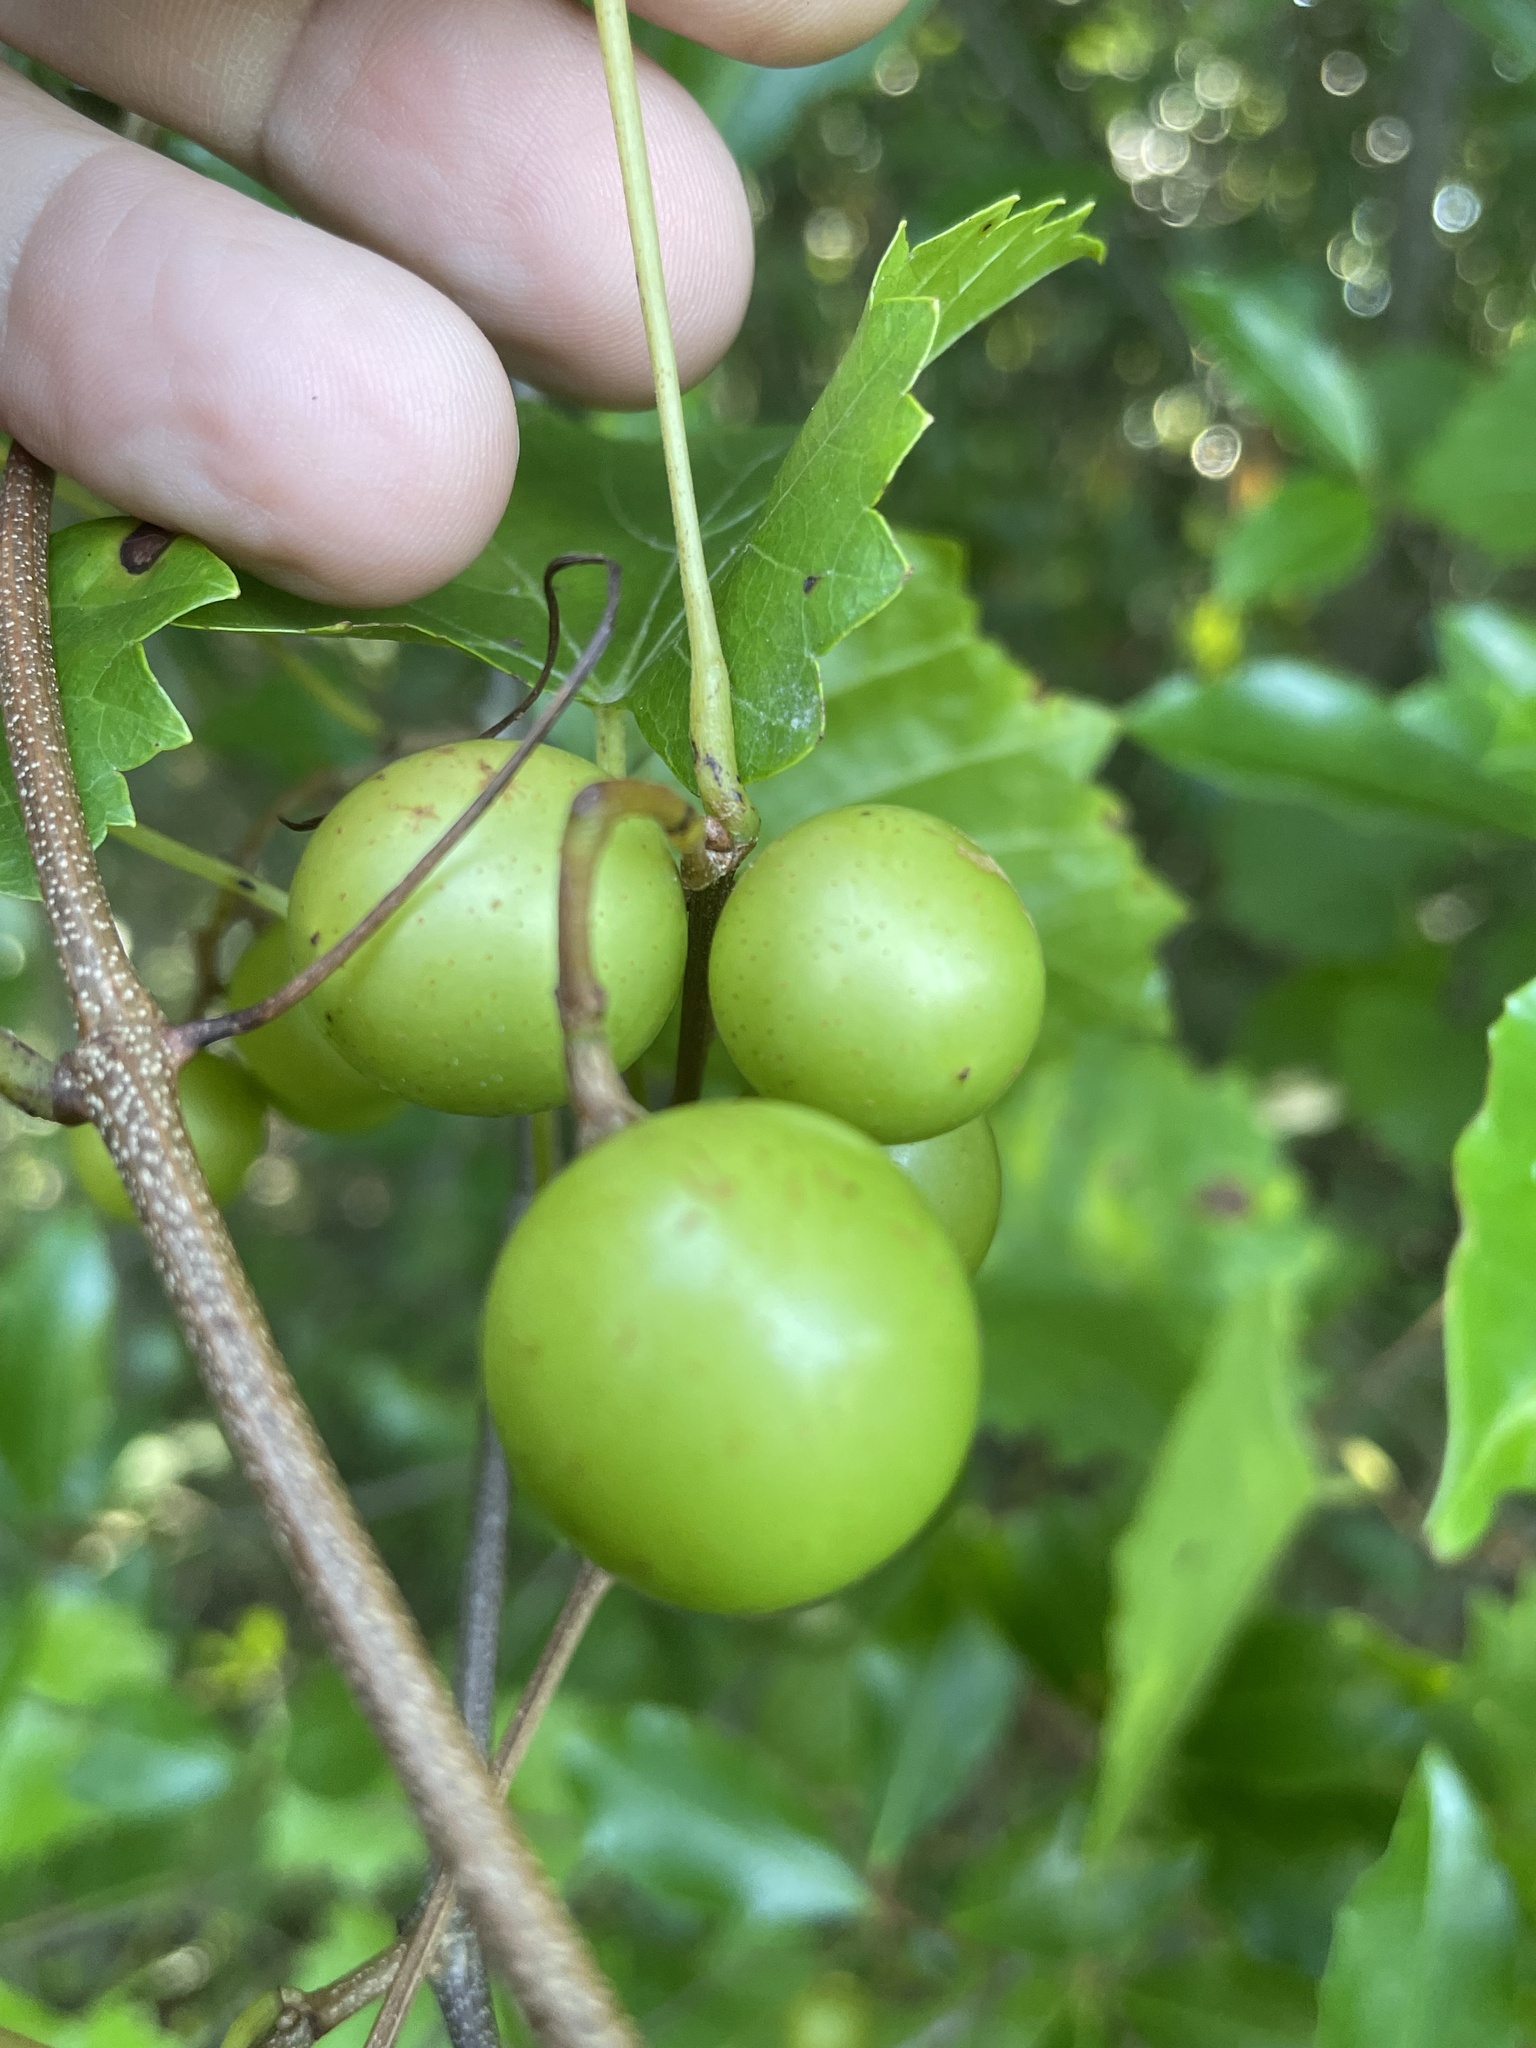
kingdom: Plantae
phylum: Tracheophyta
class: Magnoliopsida
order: Vitales
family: Vitaceae
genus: Vitis
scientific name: Vitis rotundifolia
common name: Muscadine grape
